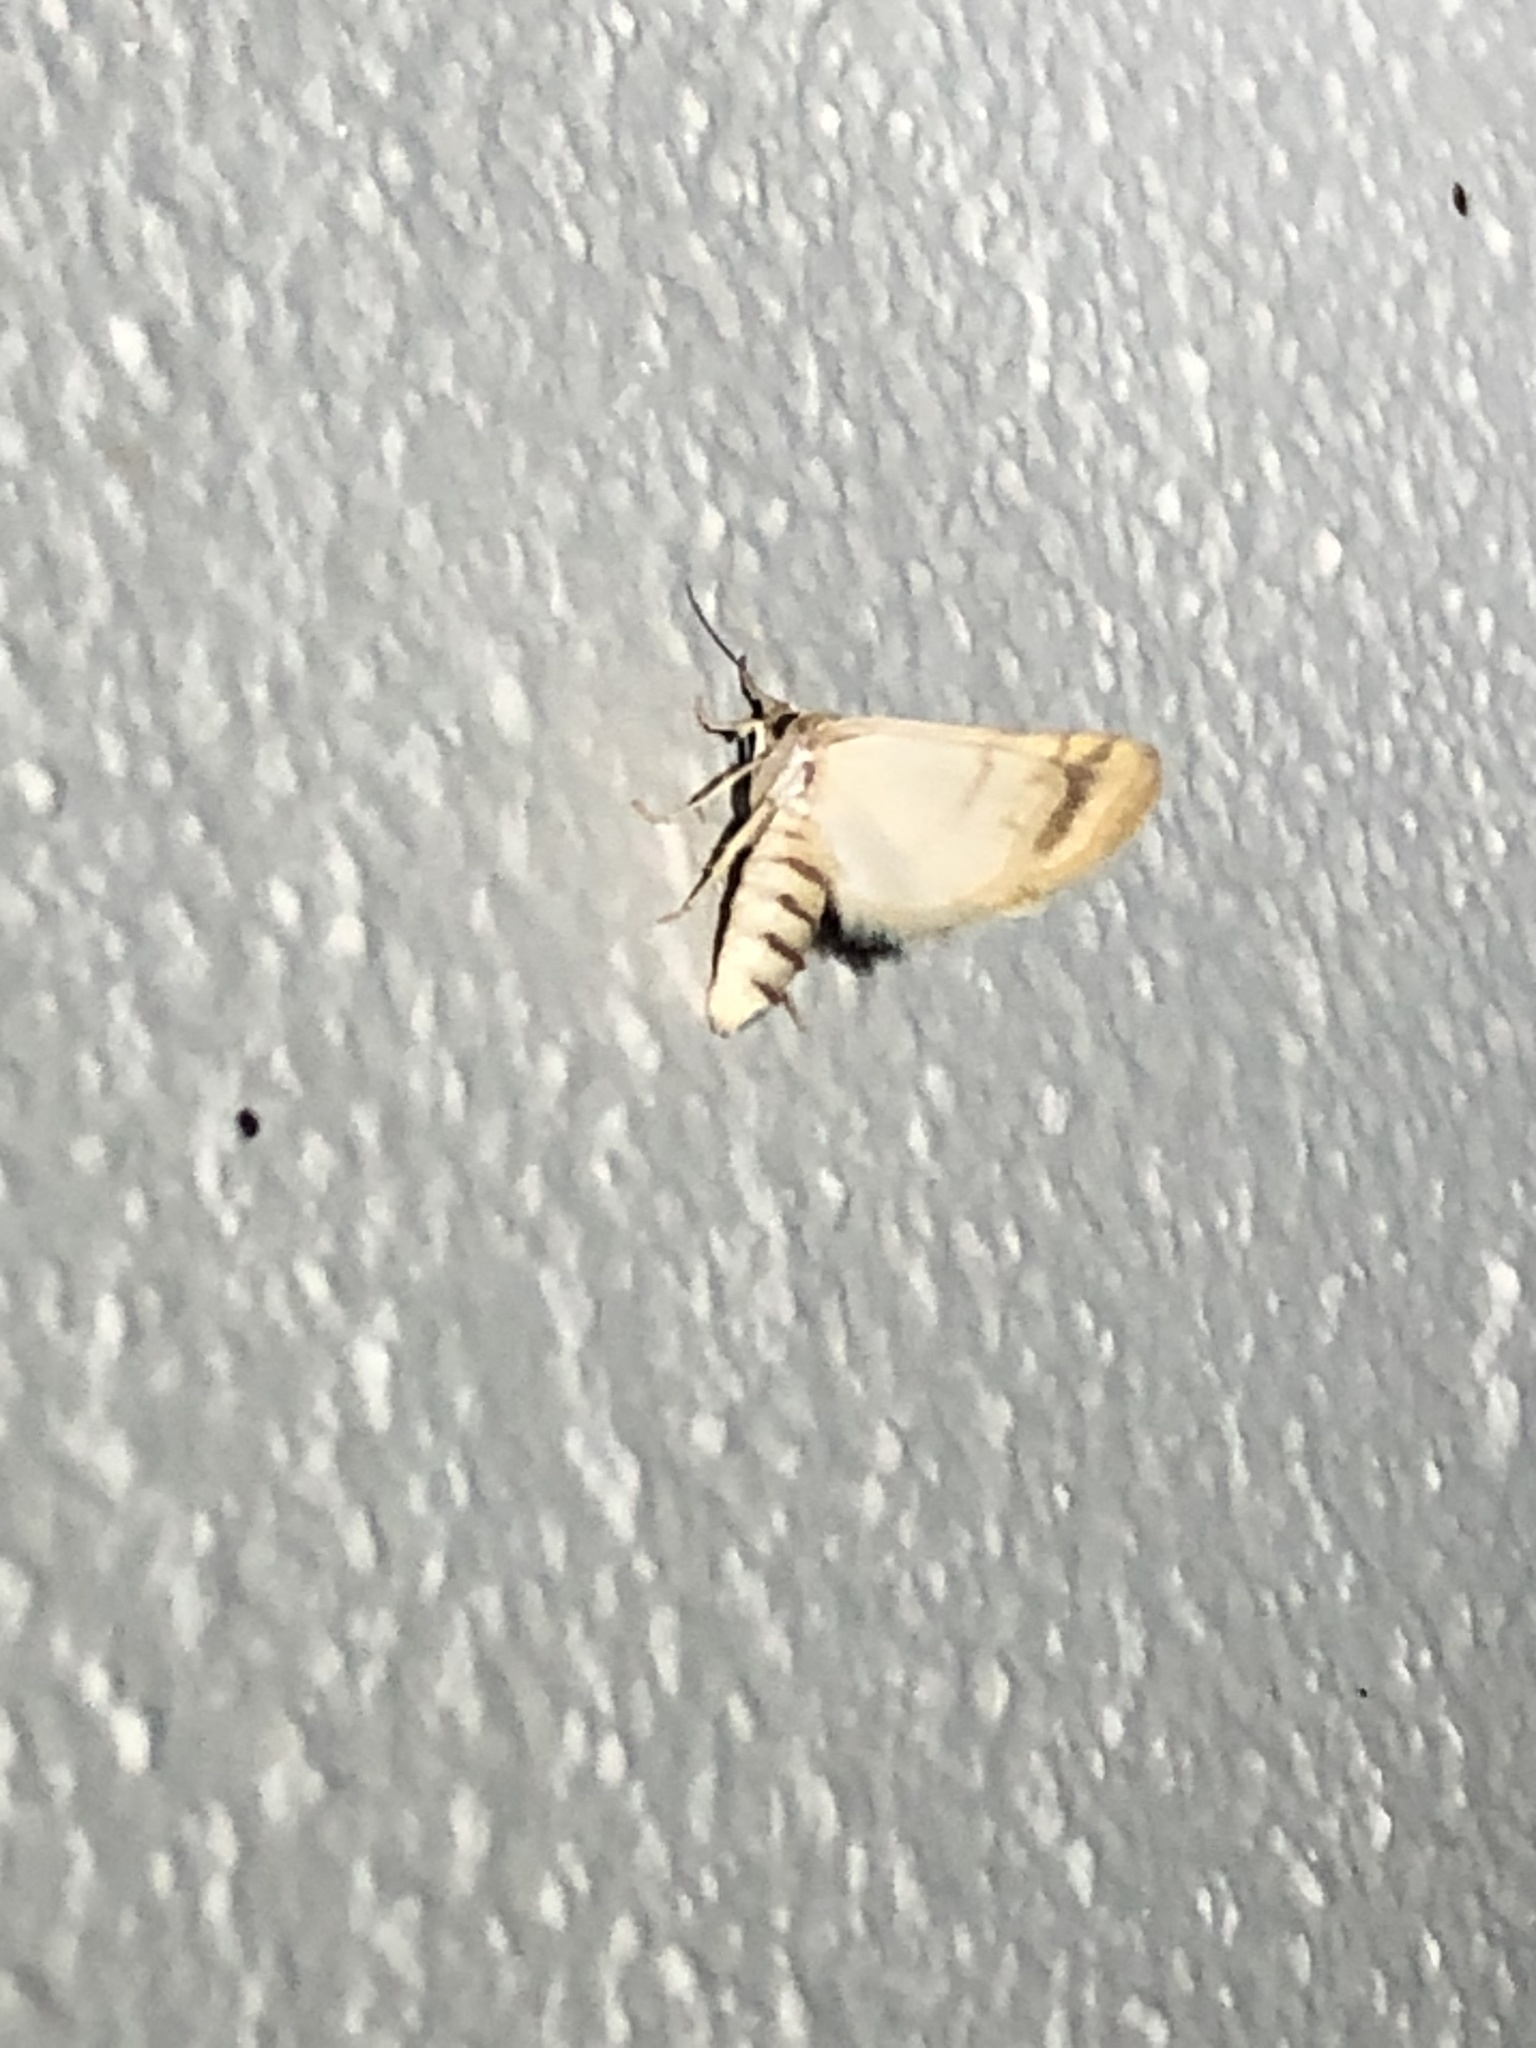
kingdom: Animalia
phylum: Arthropoda
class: Insecta
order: Lepidoptera
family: Noctuidae
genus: Azenia
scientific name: Azenia implora
